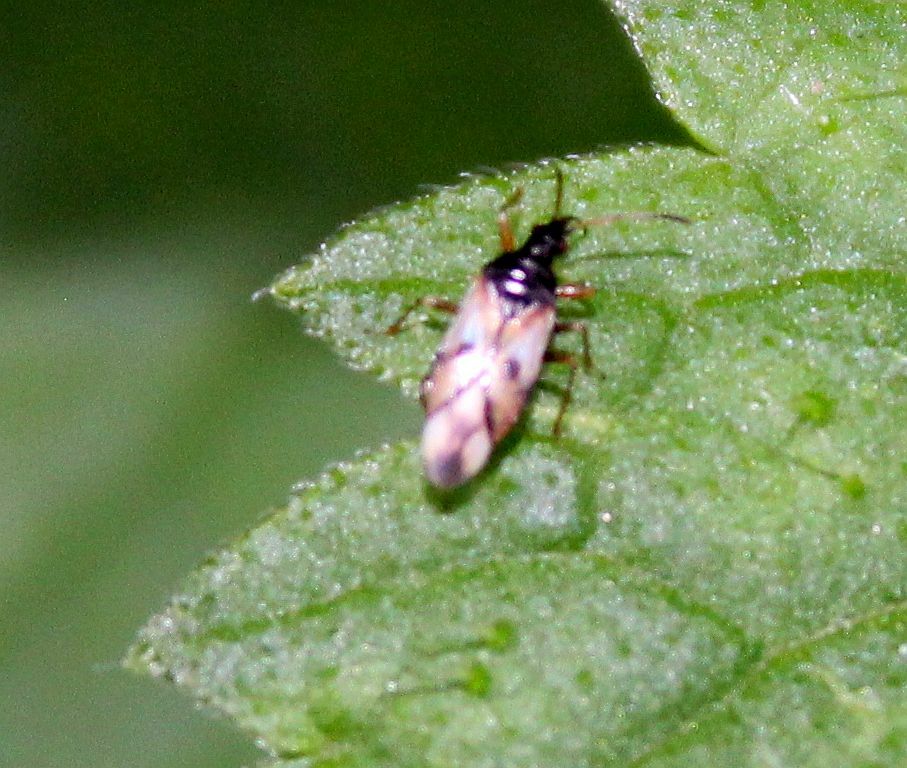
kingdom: Animalia
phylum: Arthropoda
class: Insecta
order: Hemiptera
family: Anthocoridae
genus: Anthocoris
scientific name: Anthocoris nemorum
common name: Minute pirate bug
